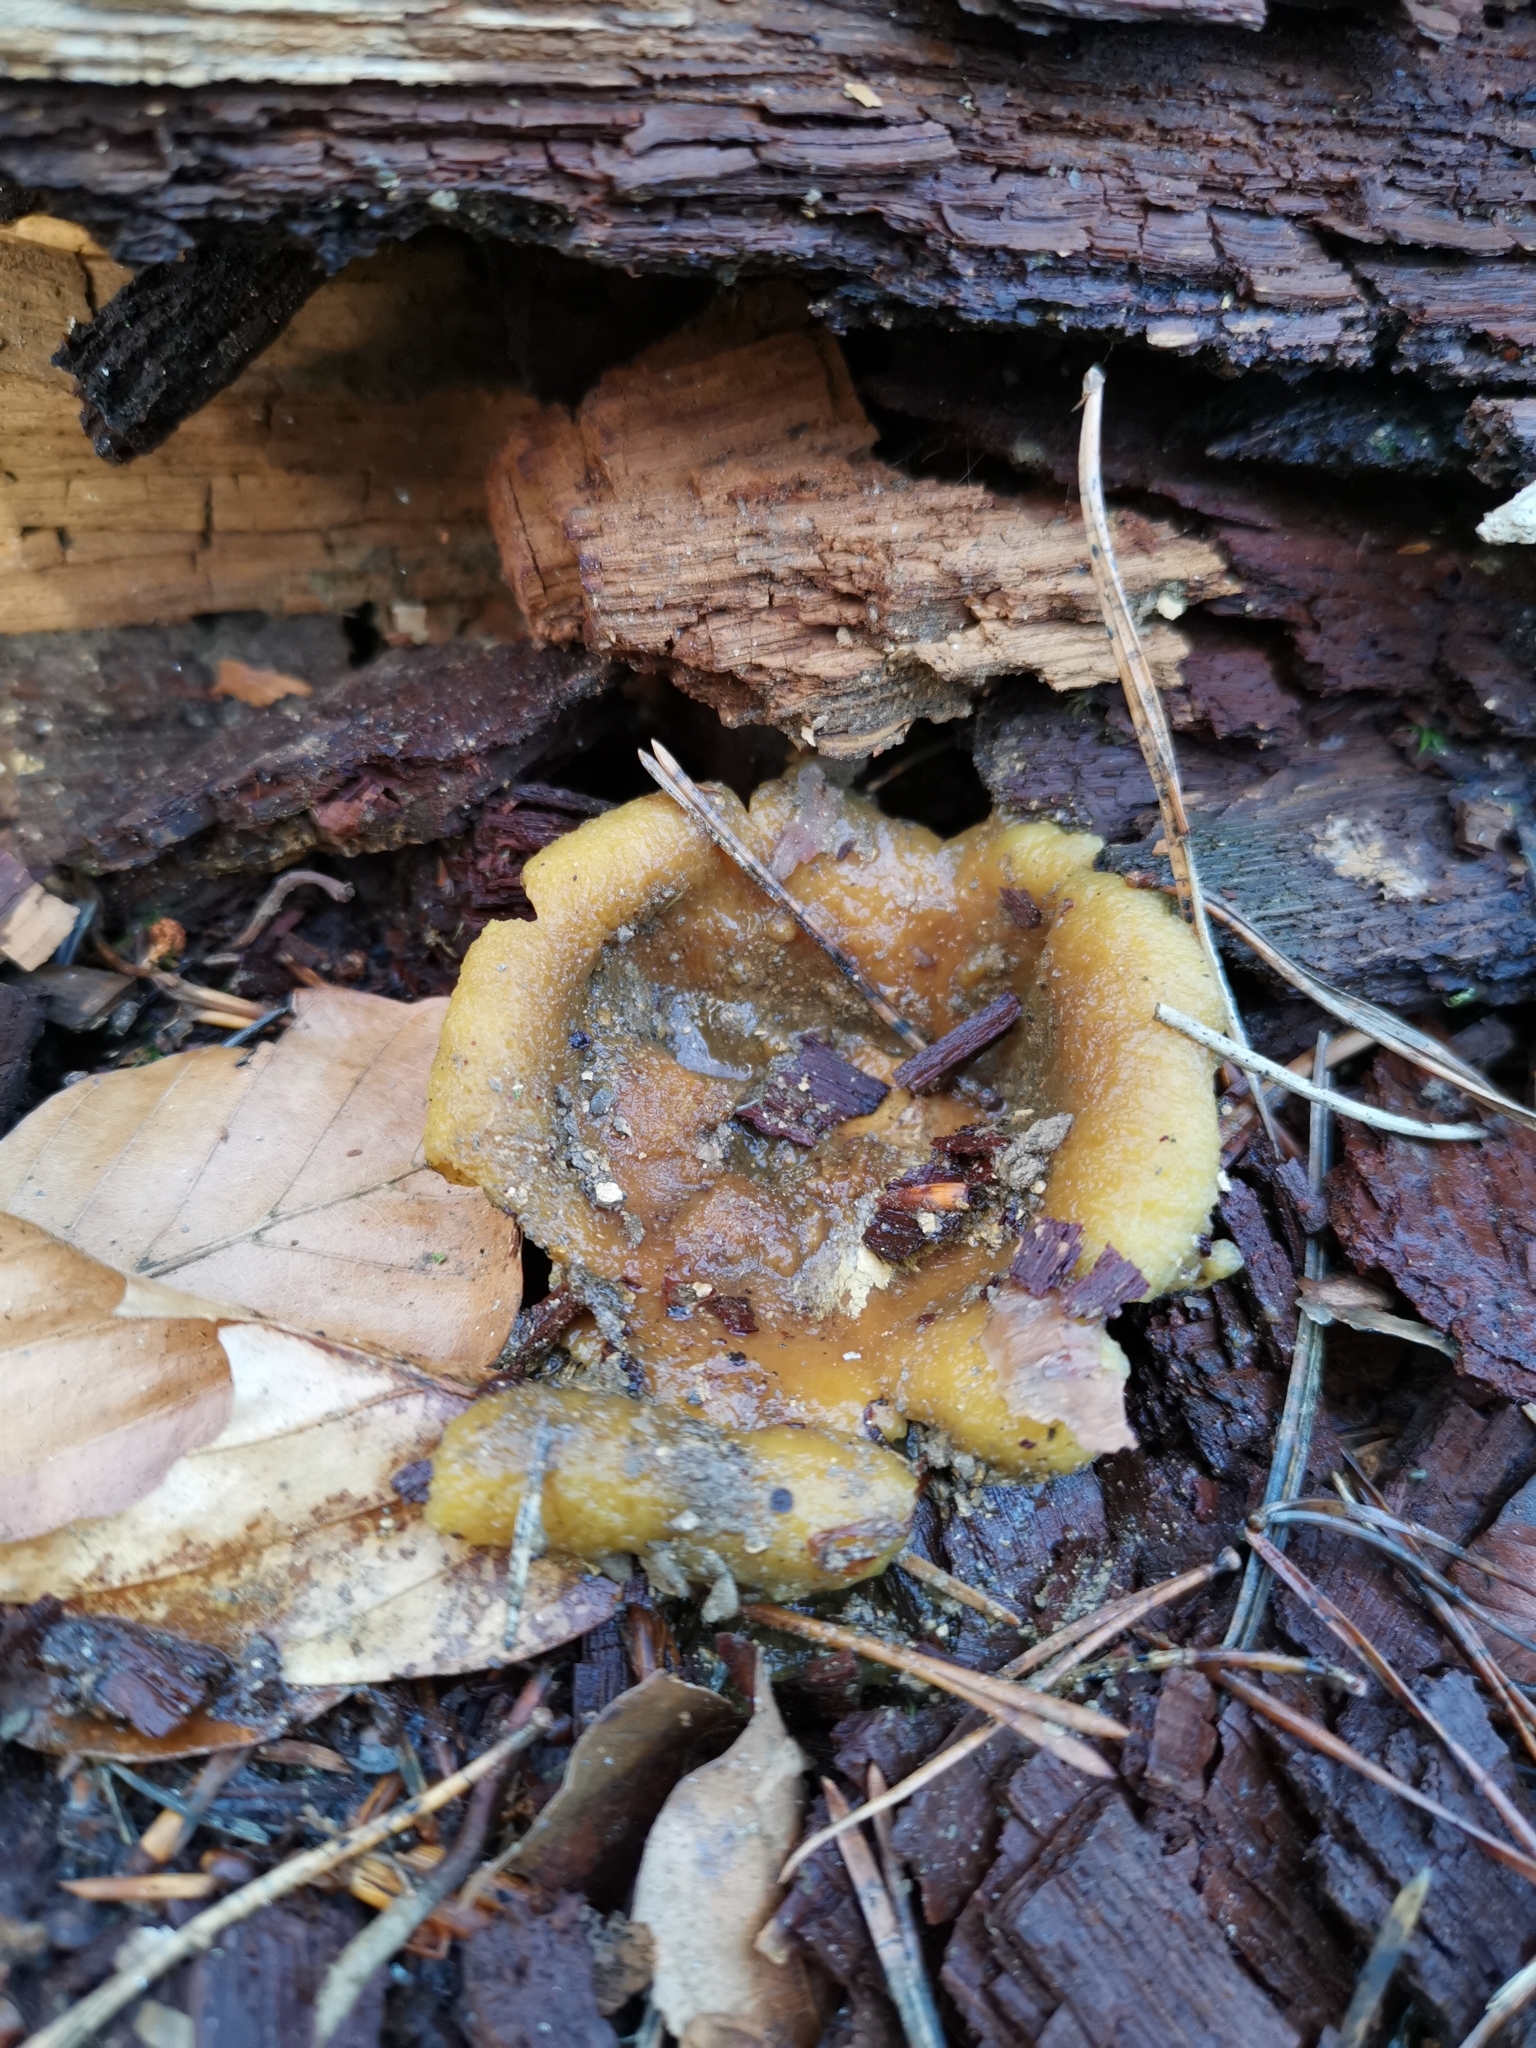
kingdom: Fungi
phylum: Basidiomycota
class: Agaricomycetes
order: Boletales
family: Sclerodermataceae
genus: Scleroderma
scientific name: Scleroderma citrinum
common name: Common earthball
